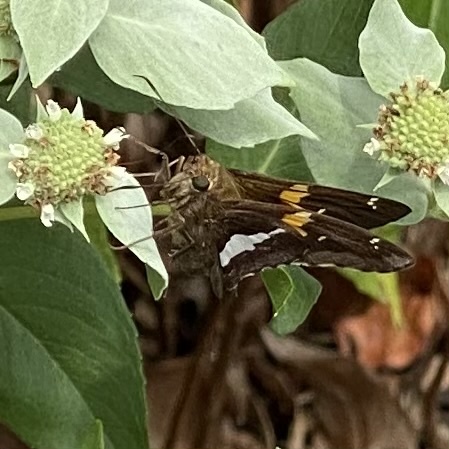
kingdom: Animalia
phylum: Arthropoda
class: Insecta
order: Lepidoptera
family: Hesperiidae
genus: Epargyreus
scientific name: Epargyreus clarus
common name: Silver-spotted skipper
